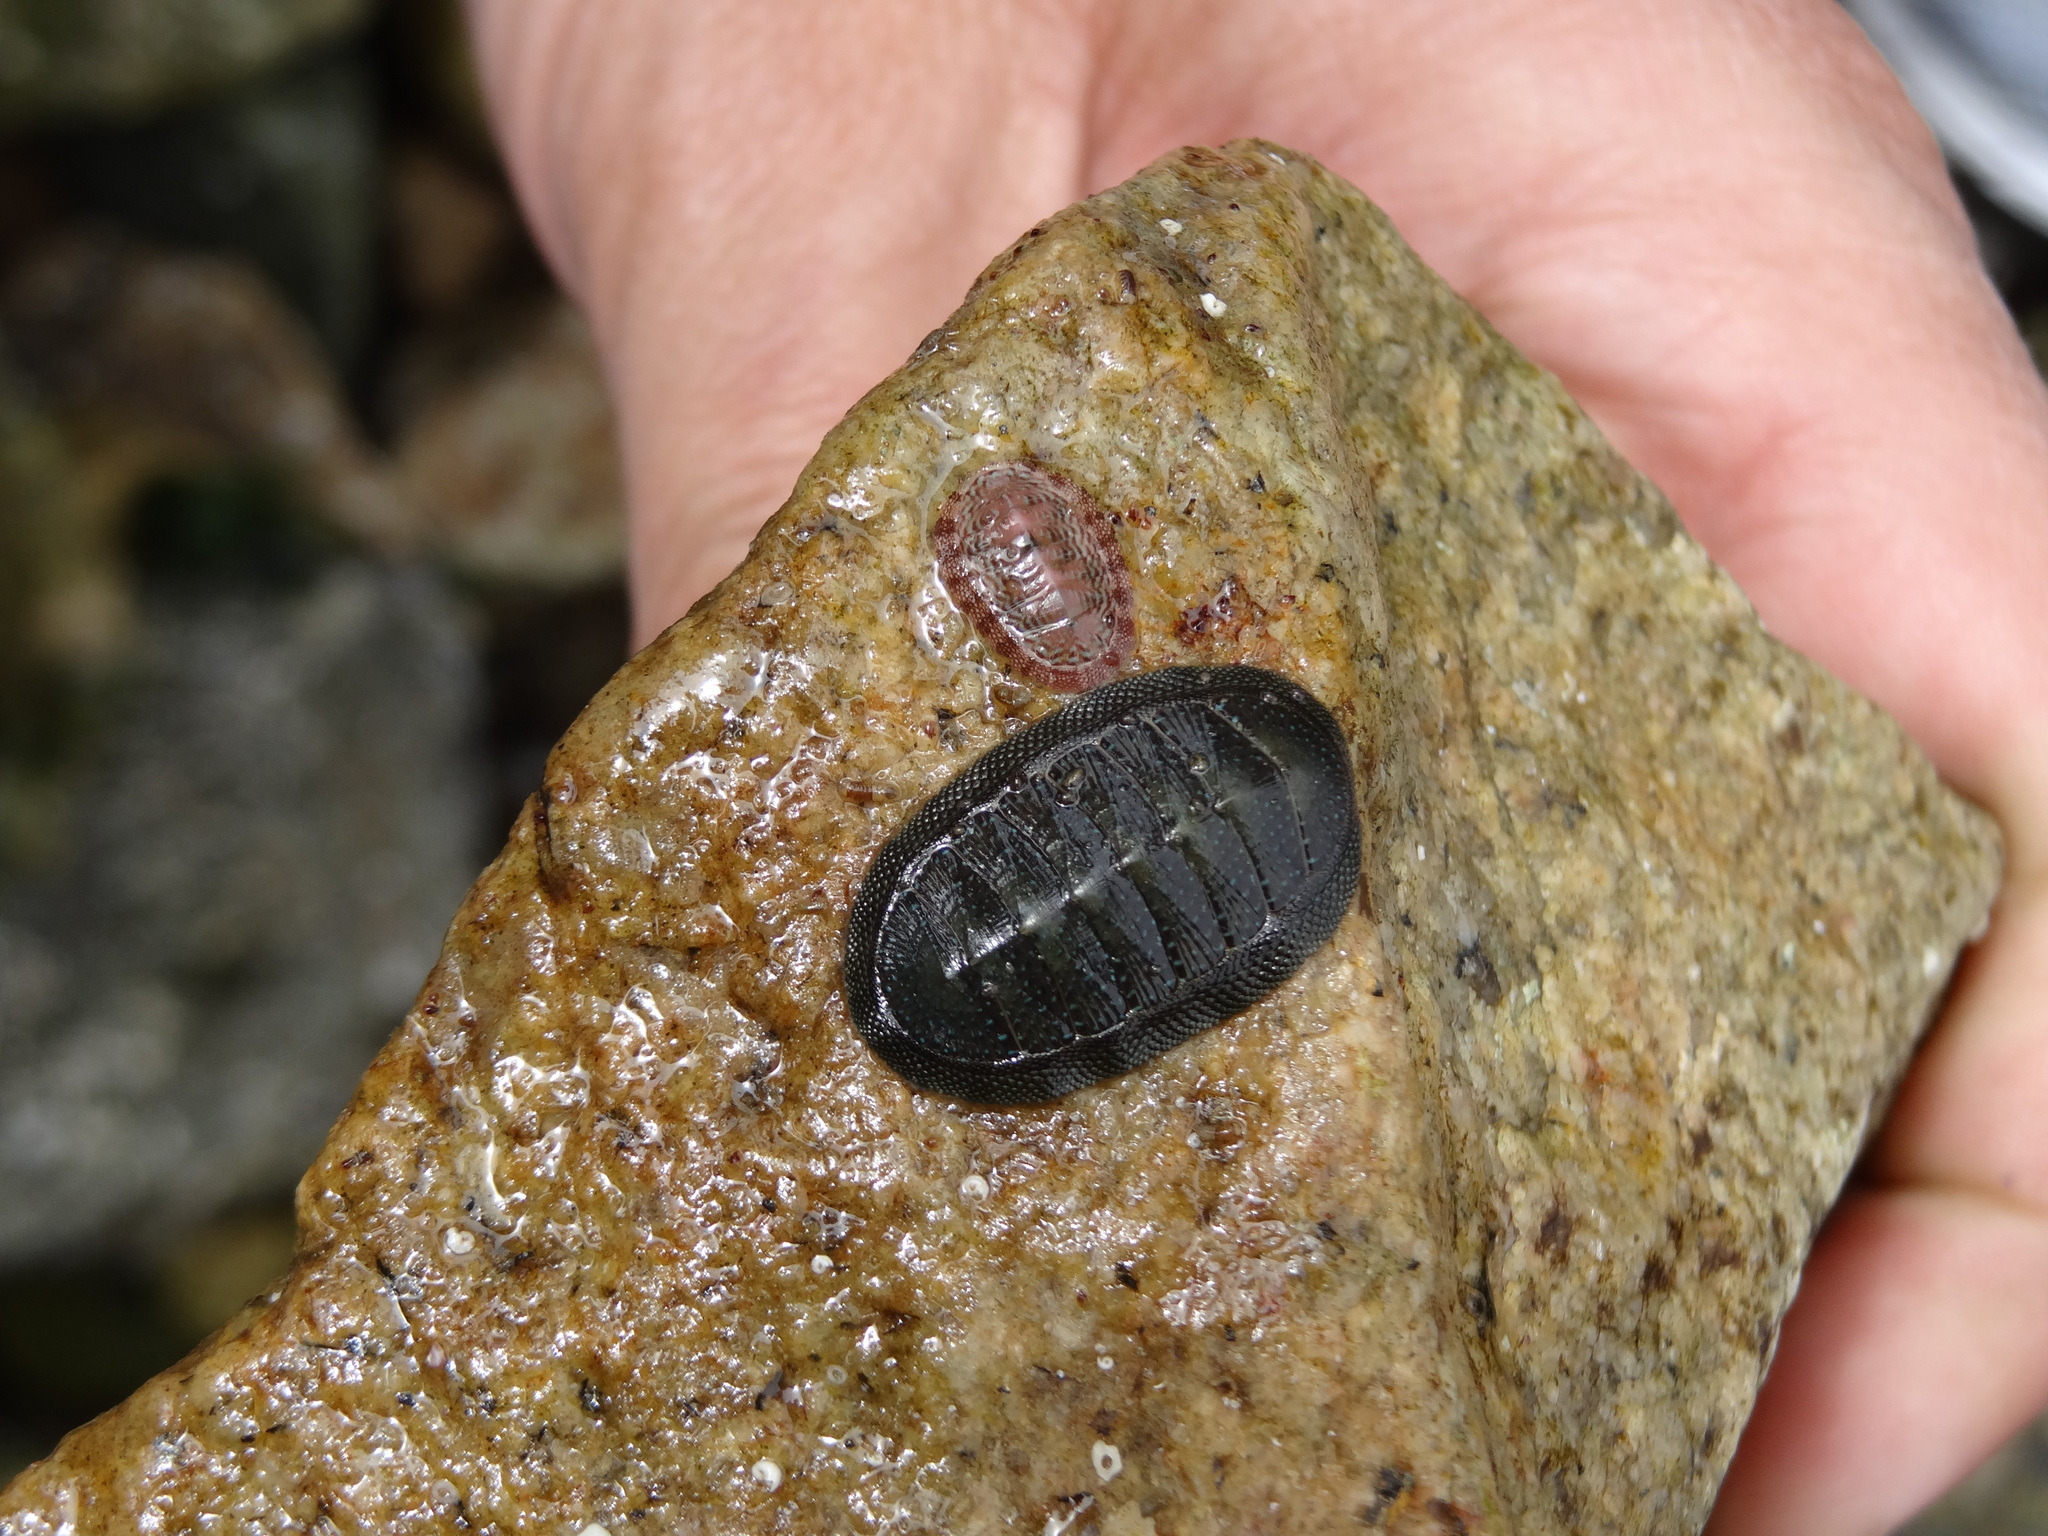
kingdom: Animalia
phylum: Mollusca
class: Polyplacophora
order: Chitonida
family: Chitonidae
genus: Chiton
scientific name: Chiton cumingsii
